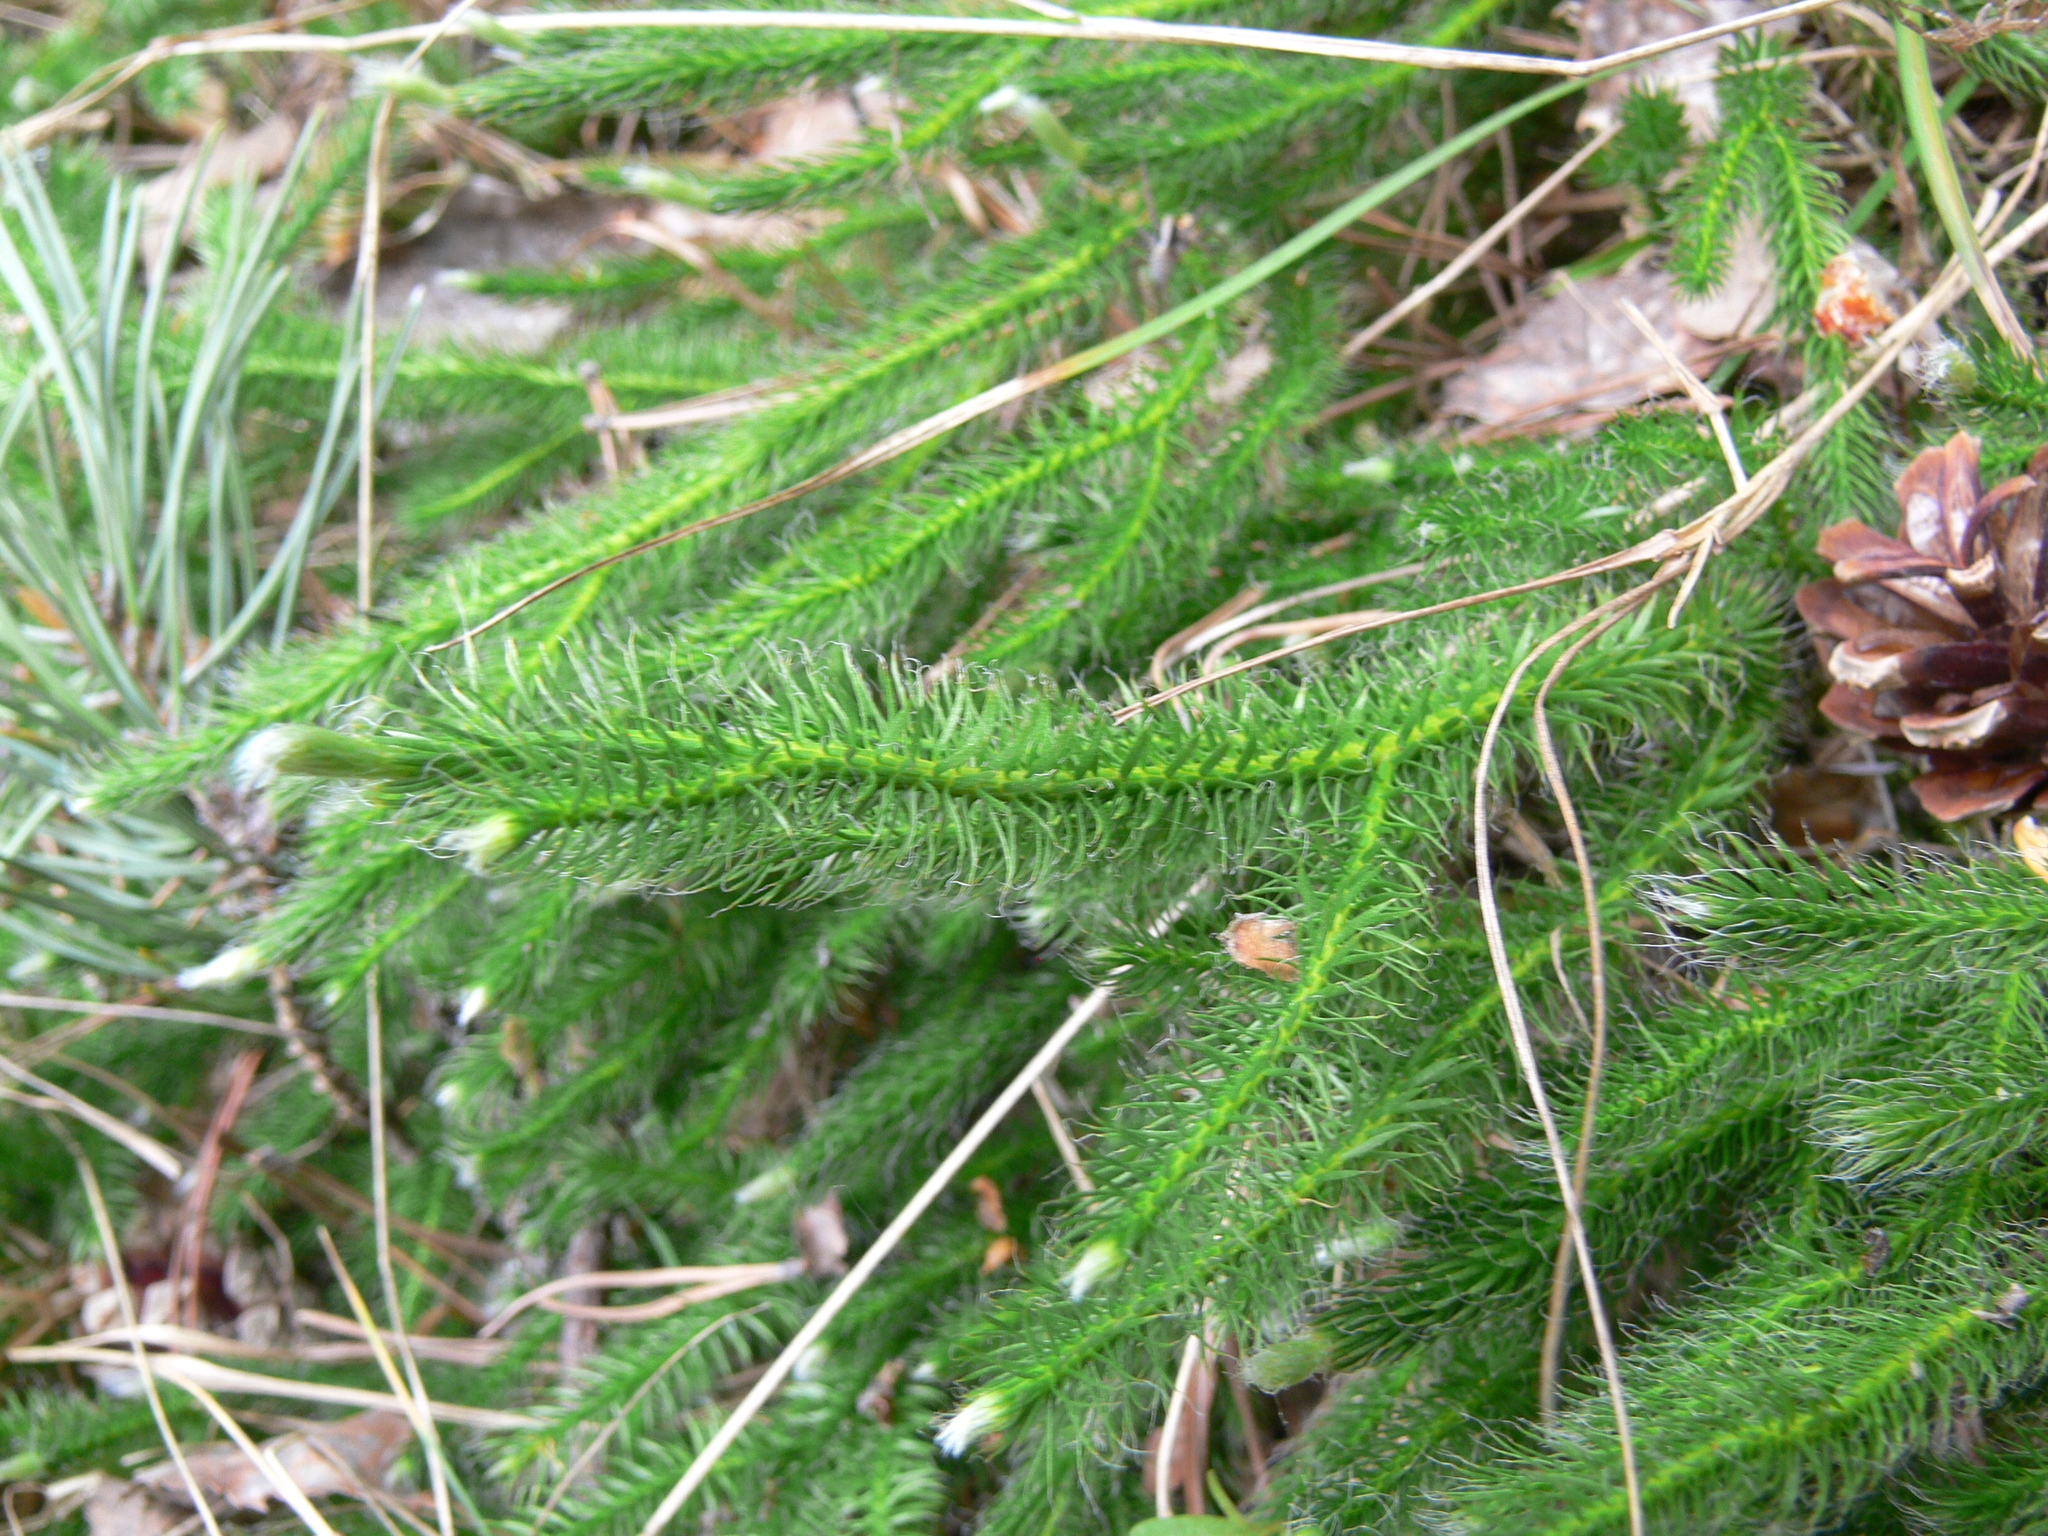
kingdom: Plantae
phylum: Tracheophyta
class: Lycopodiopsida
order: Lycopodiales
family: Lycopodiaceae
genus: Lycopodium
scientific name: Lycopodium clavatum
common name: Stag's-horn clubmoss
